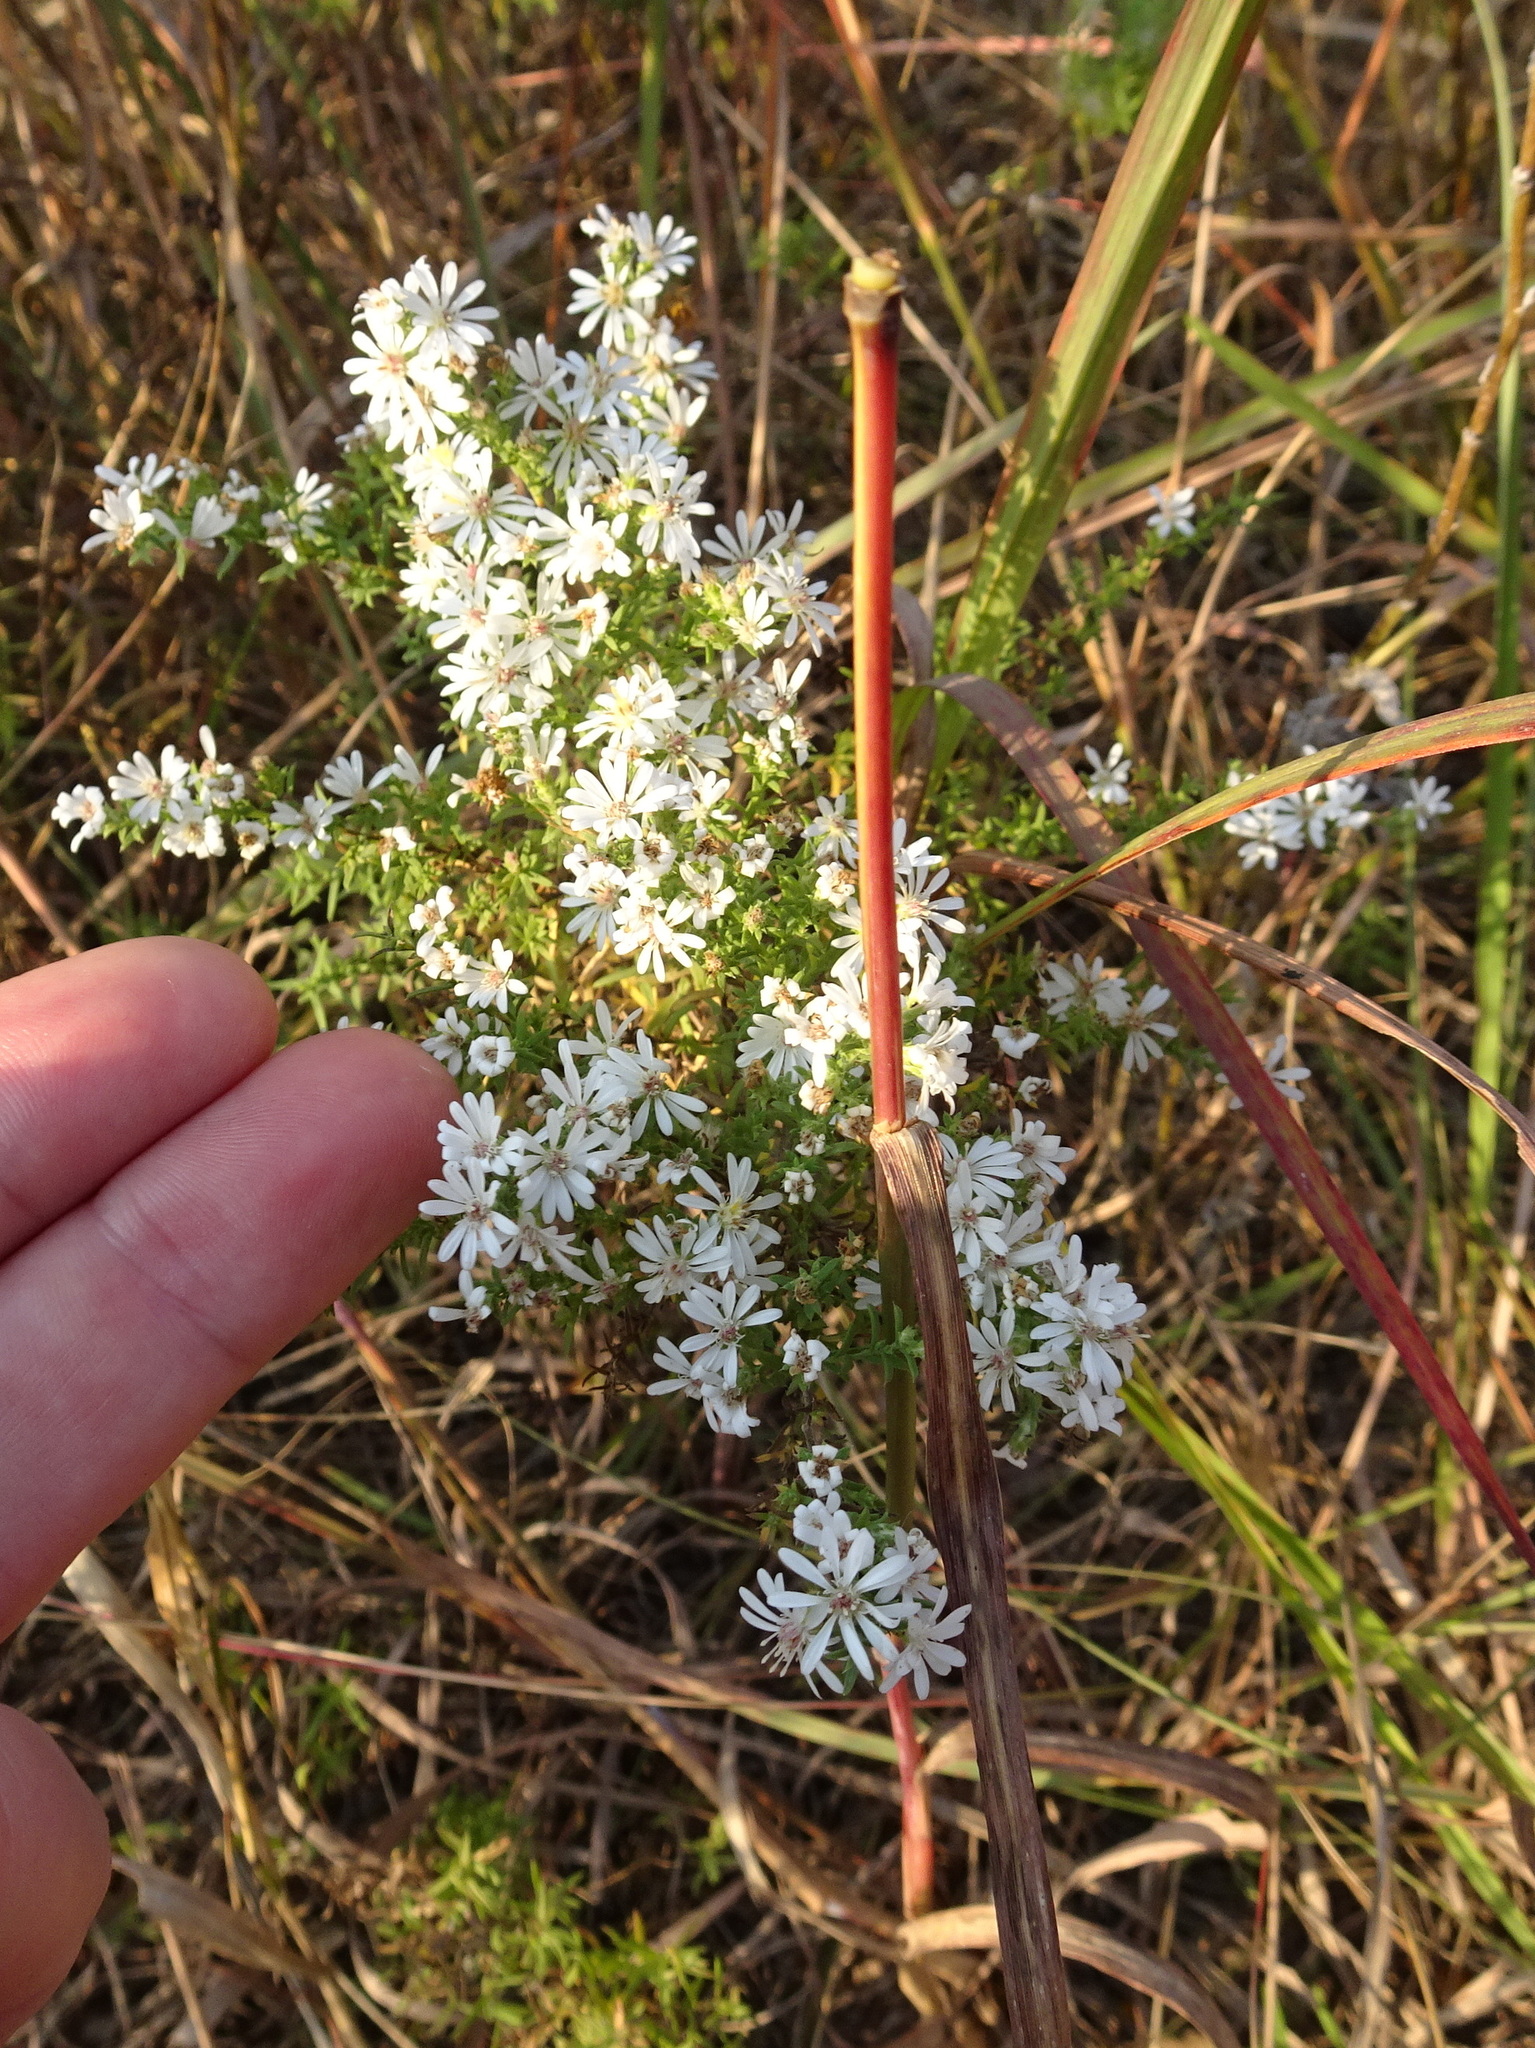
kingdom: Plantae
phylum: Tracheophyta
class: Magnoliopsida
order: Asterales
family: Asteraceae
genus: Symphyotrichum
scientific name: Symphyotrichum ericoides
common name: Heath aster
